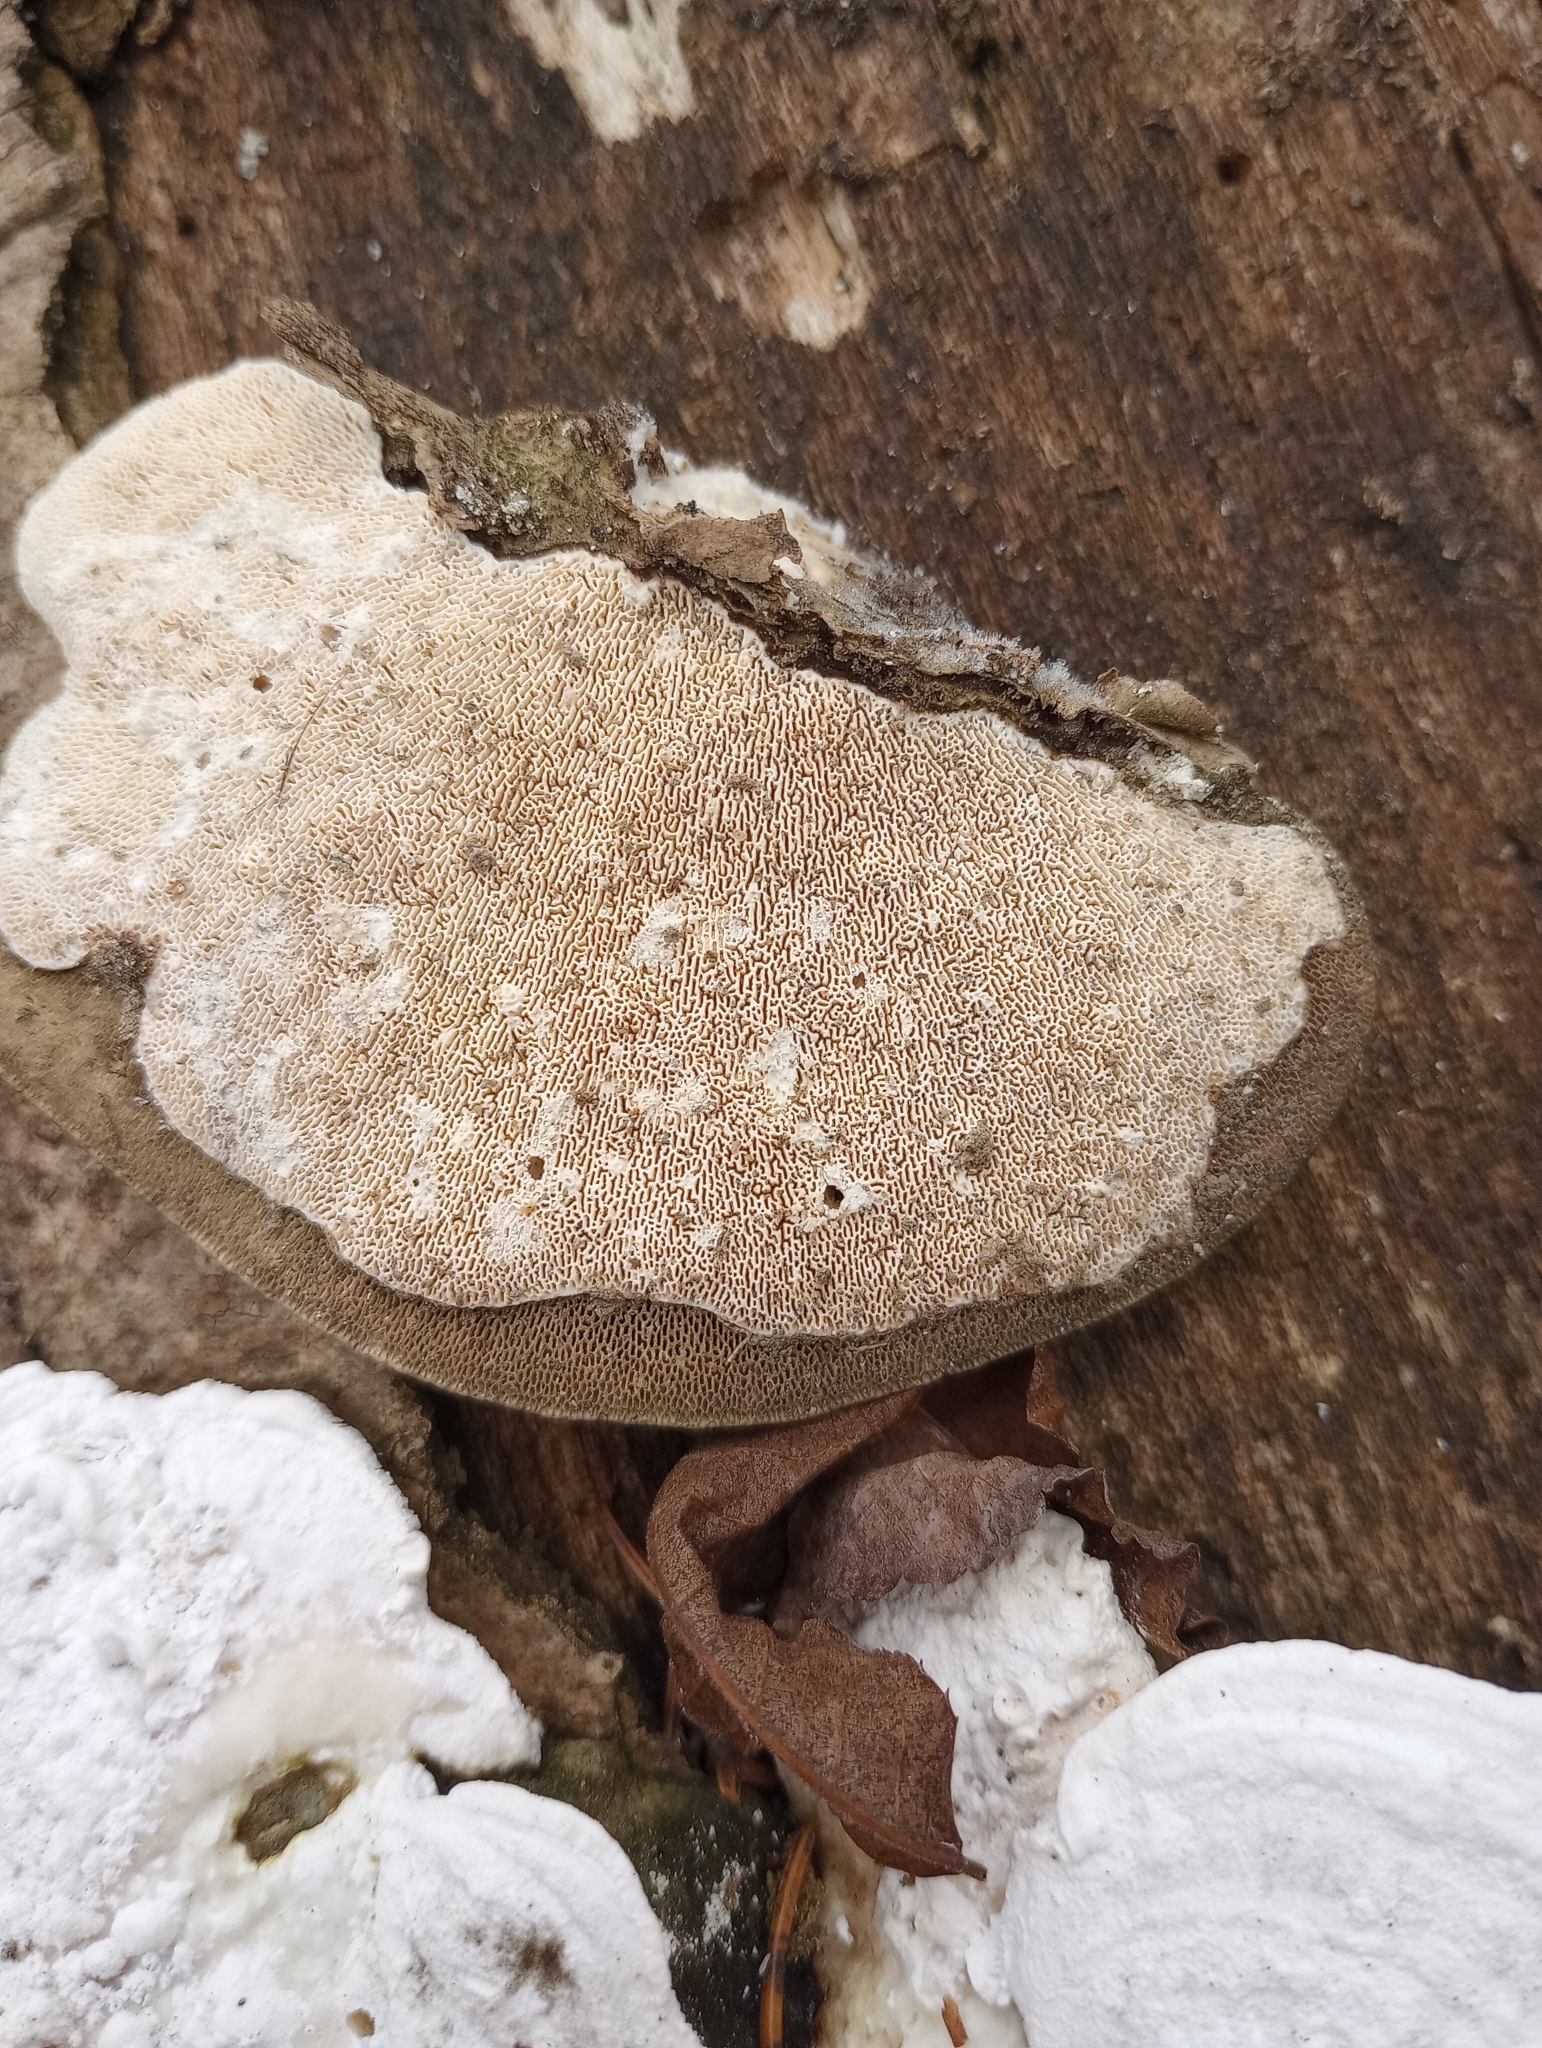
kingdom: Fungi
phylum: Basidiomycota
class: Agaricomycetes
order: Polyporales
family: Polyporaceae
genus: Trametes
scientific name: Trametes gibbosa
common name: Lumpy bracket
